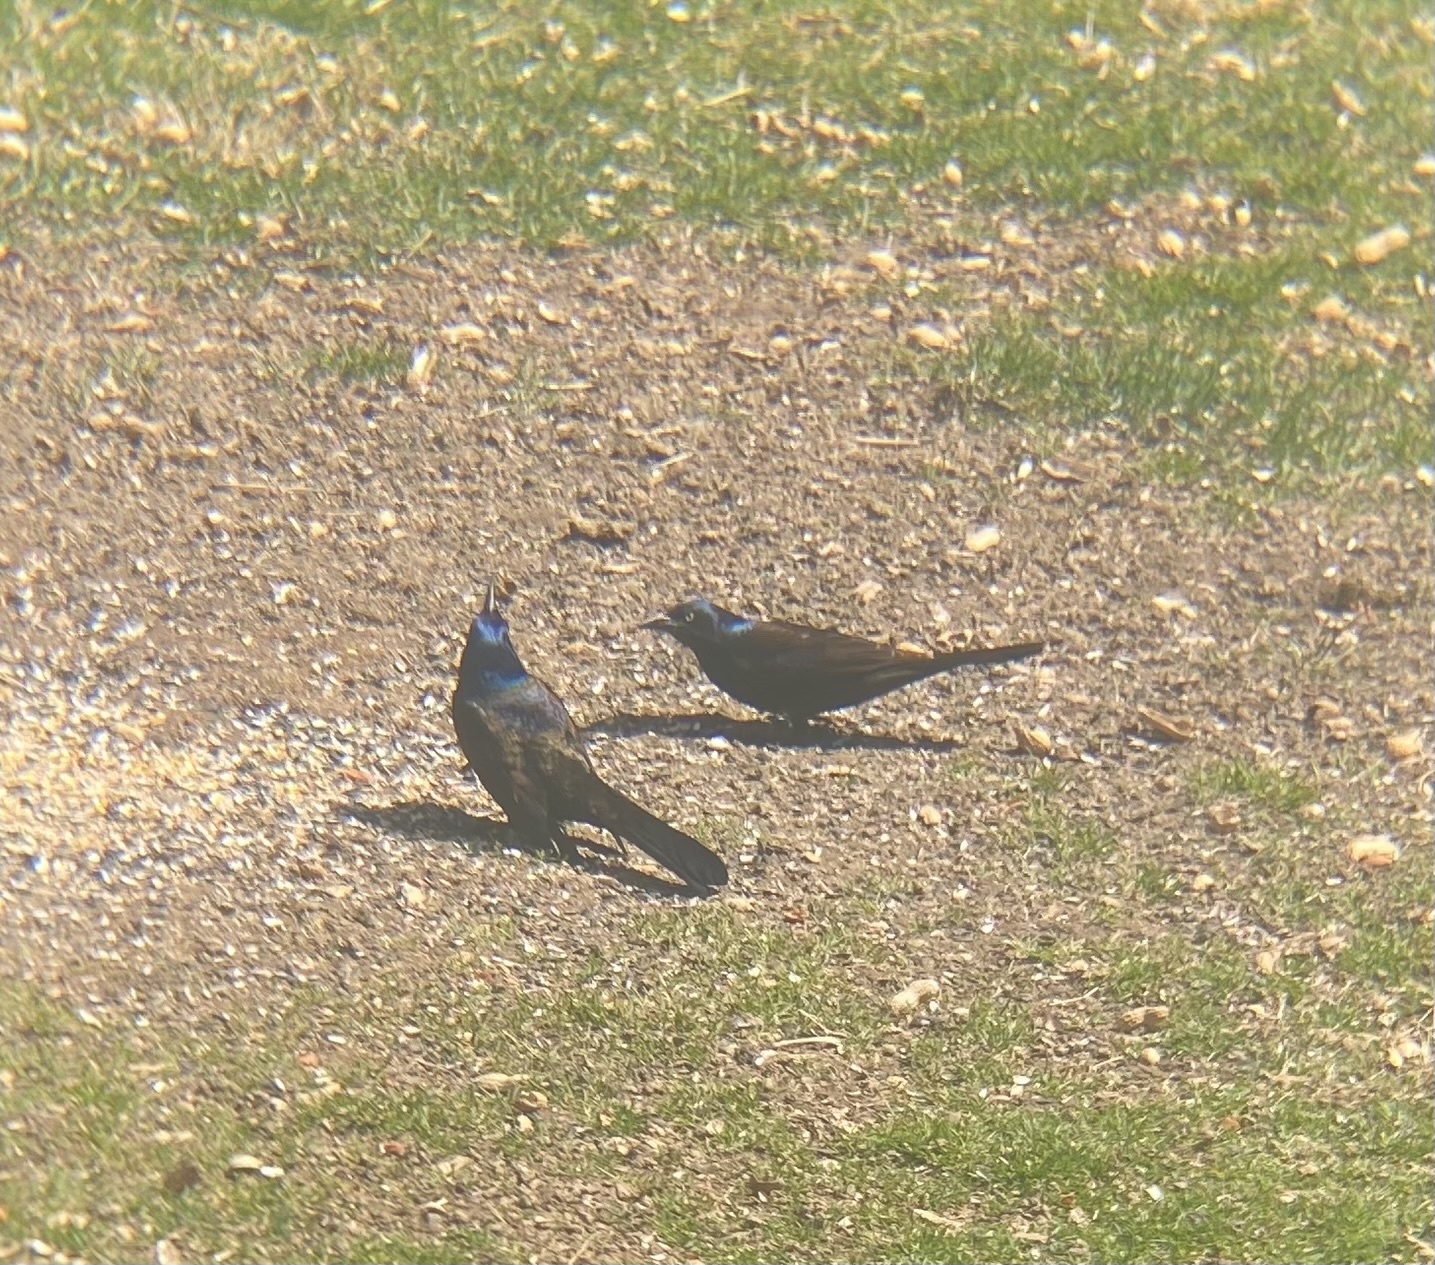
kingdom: Animalia
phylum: Chordata
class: Aves
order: Passeriformes
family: Icteridae
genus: Quiscalus
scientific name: Quiscalus quiscula
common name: Common grackle
